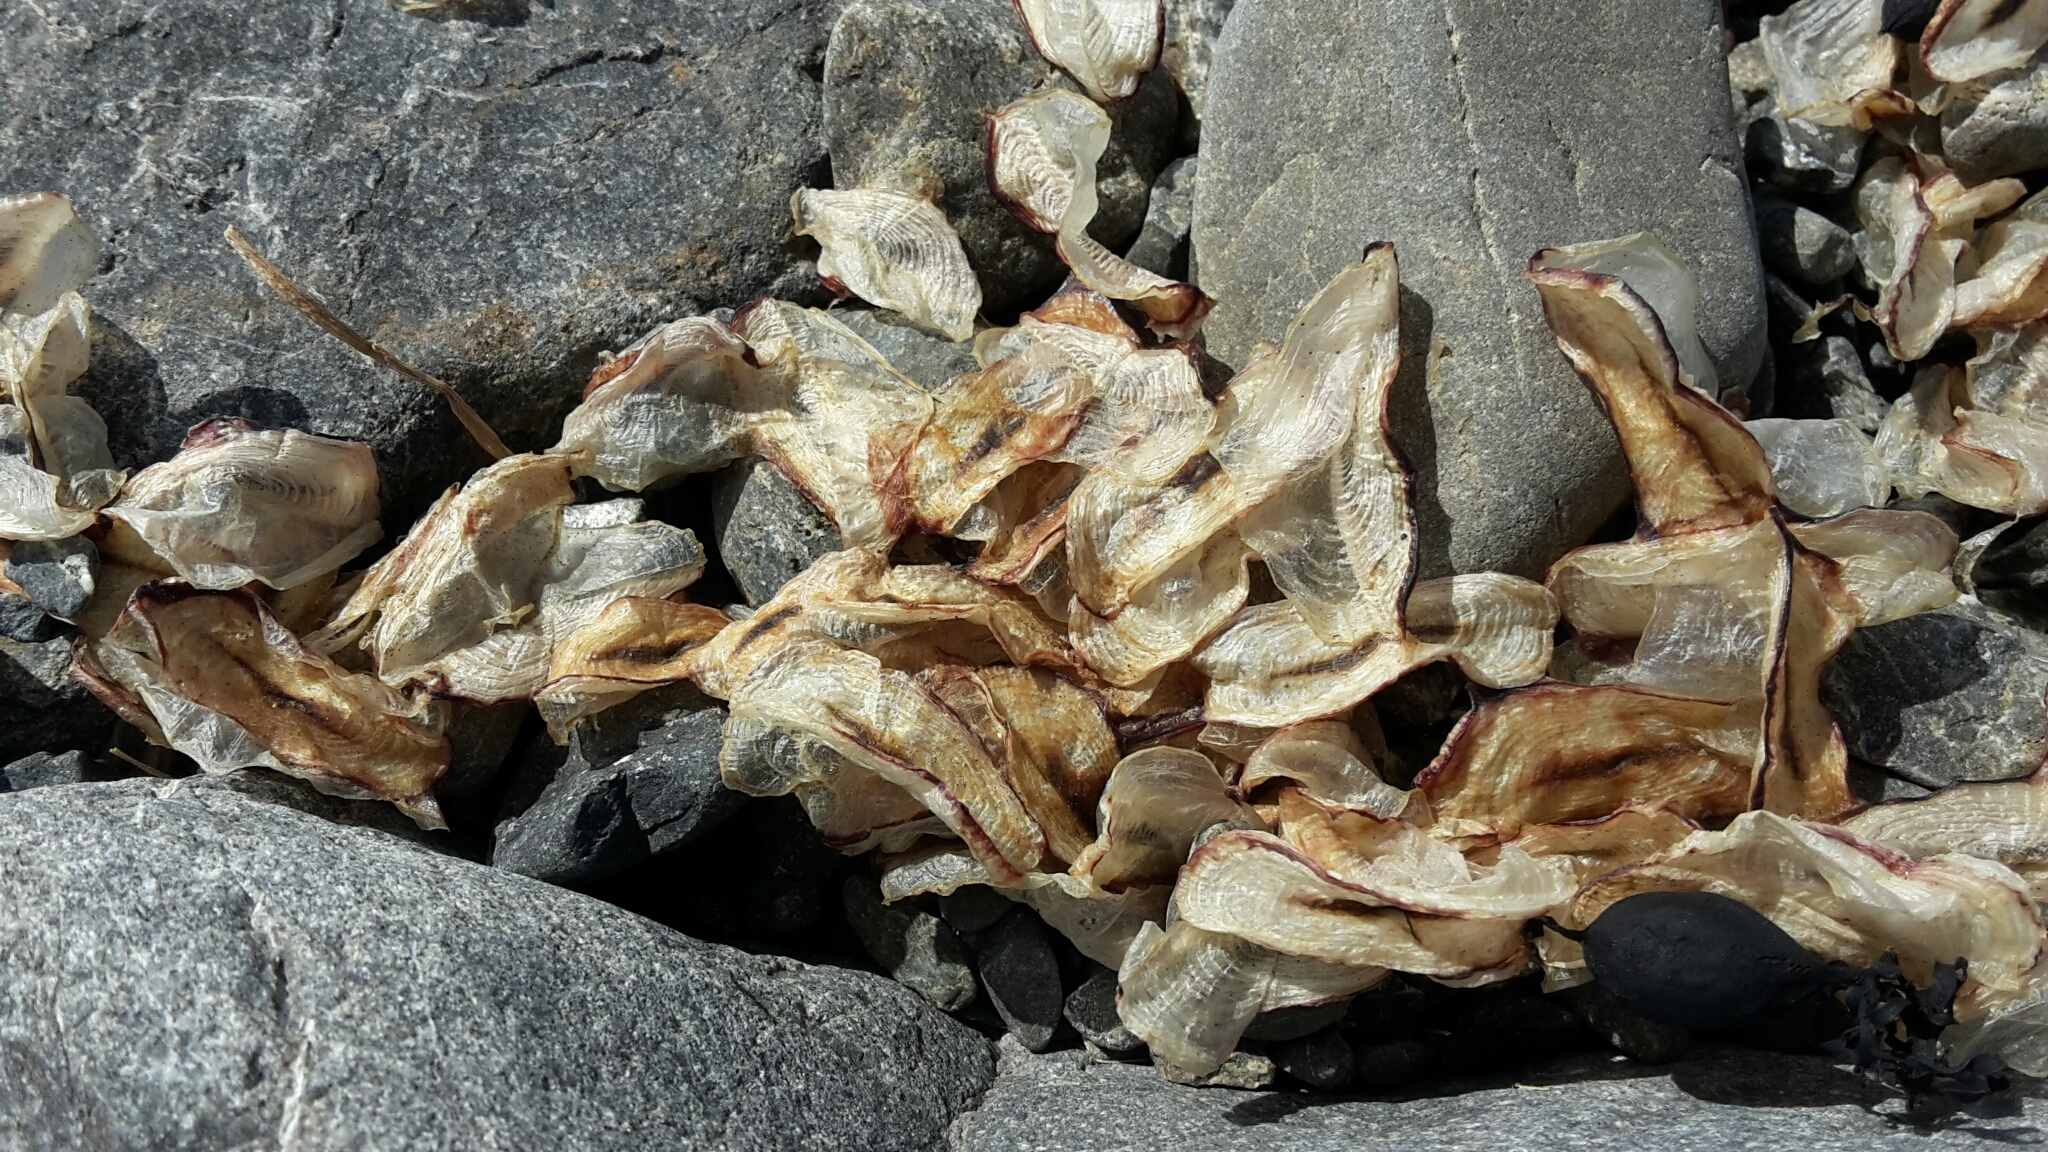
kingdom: Animalia
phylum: Cnidaria
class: Hydrozoa
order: Anthoathecata
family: Porpitidae
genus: Velella
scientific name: Velella velella
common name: By-the-wind-sailor
